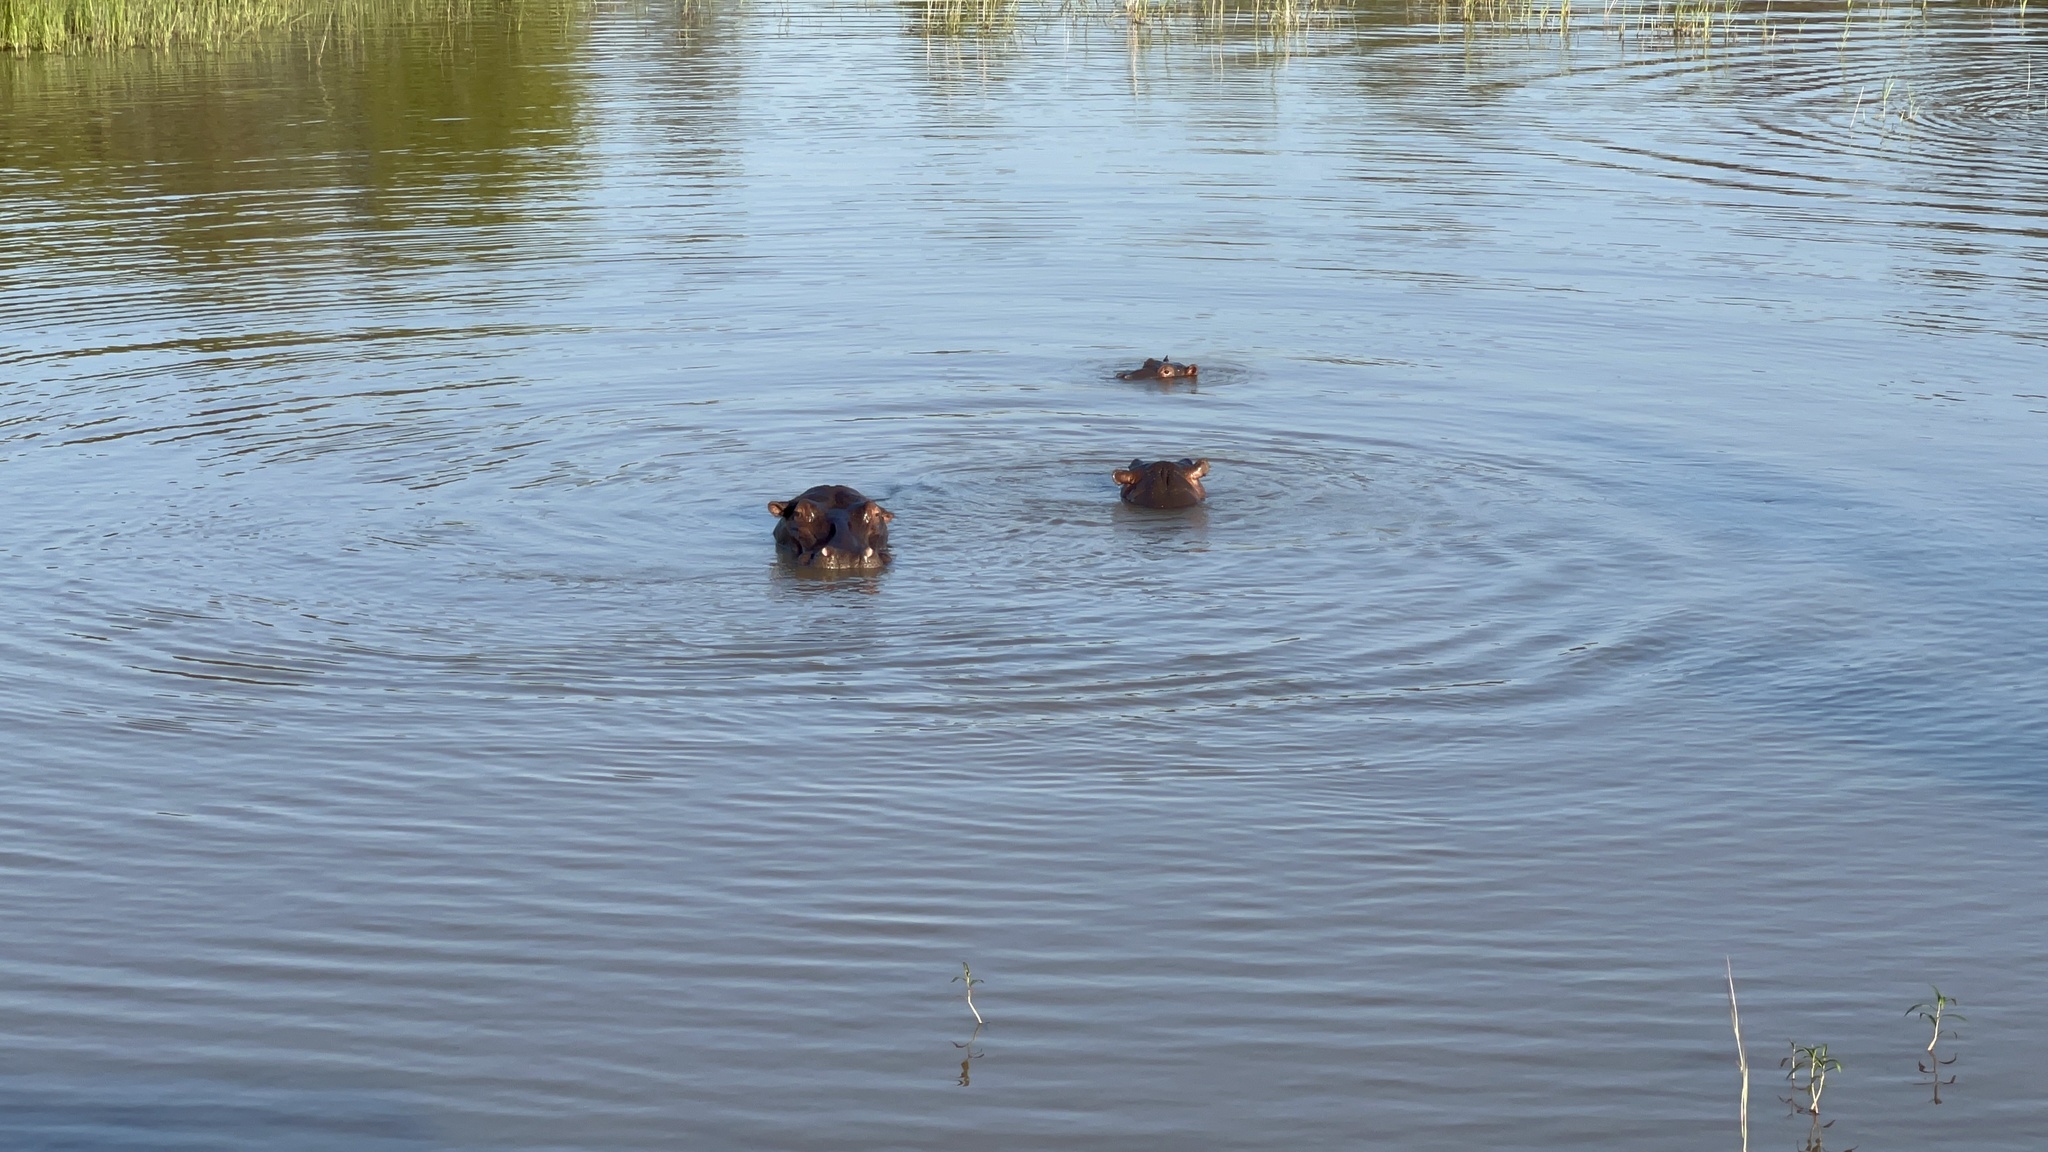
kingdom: Animalia
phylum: Chordata
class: Mammalia
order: Artiodactyla
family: Hippopotamidae
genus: Hippopotamus
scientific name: Hippopotamus amphibius
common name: Common hippopotamus
